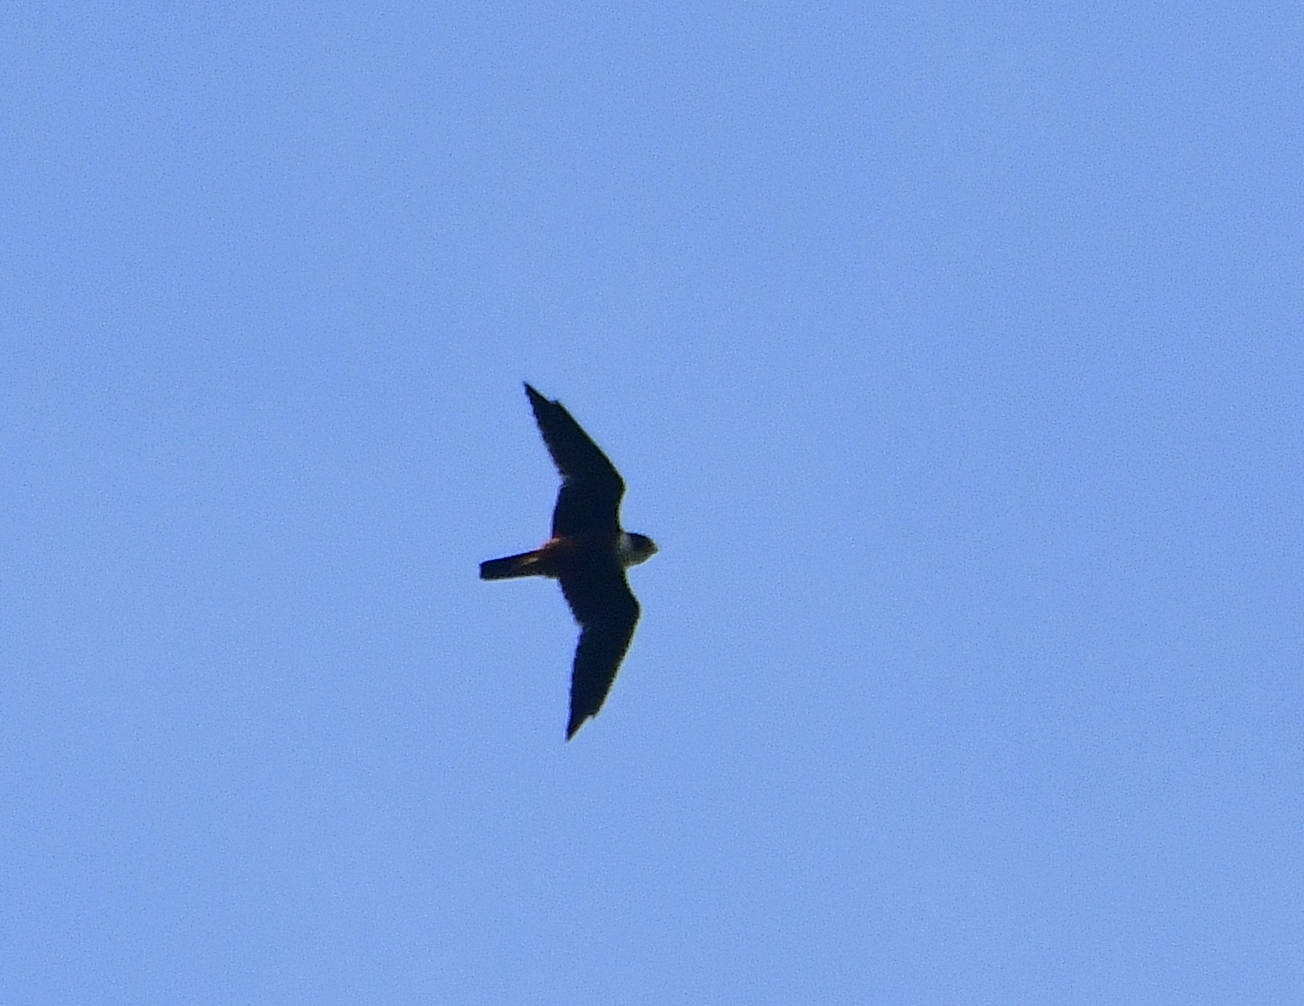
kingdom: Animalia
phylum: Chordata
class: Aves
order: Falconiformes
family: Falconidae
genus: Falco
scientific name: Falco rufigularis
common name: Bat falcon
